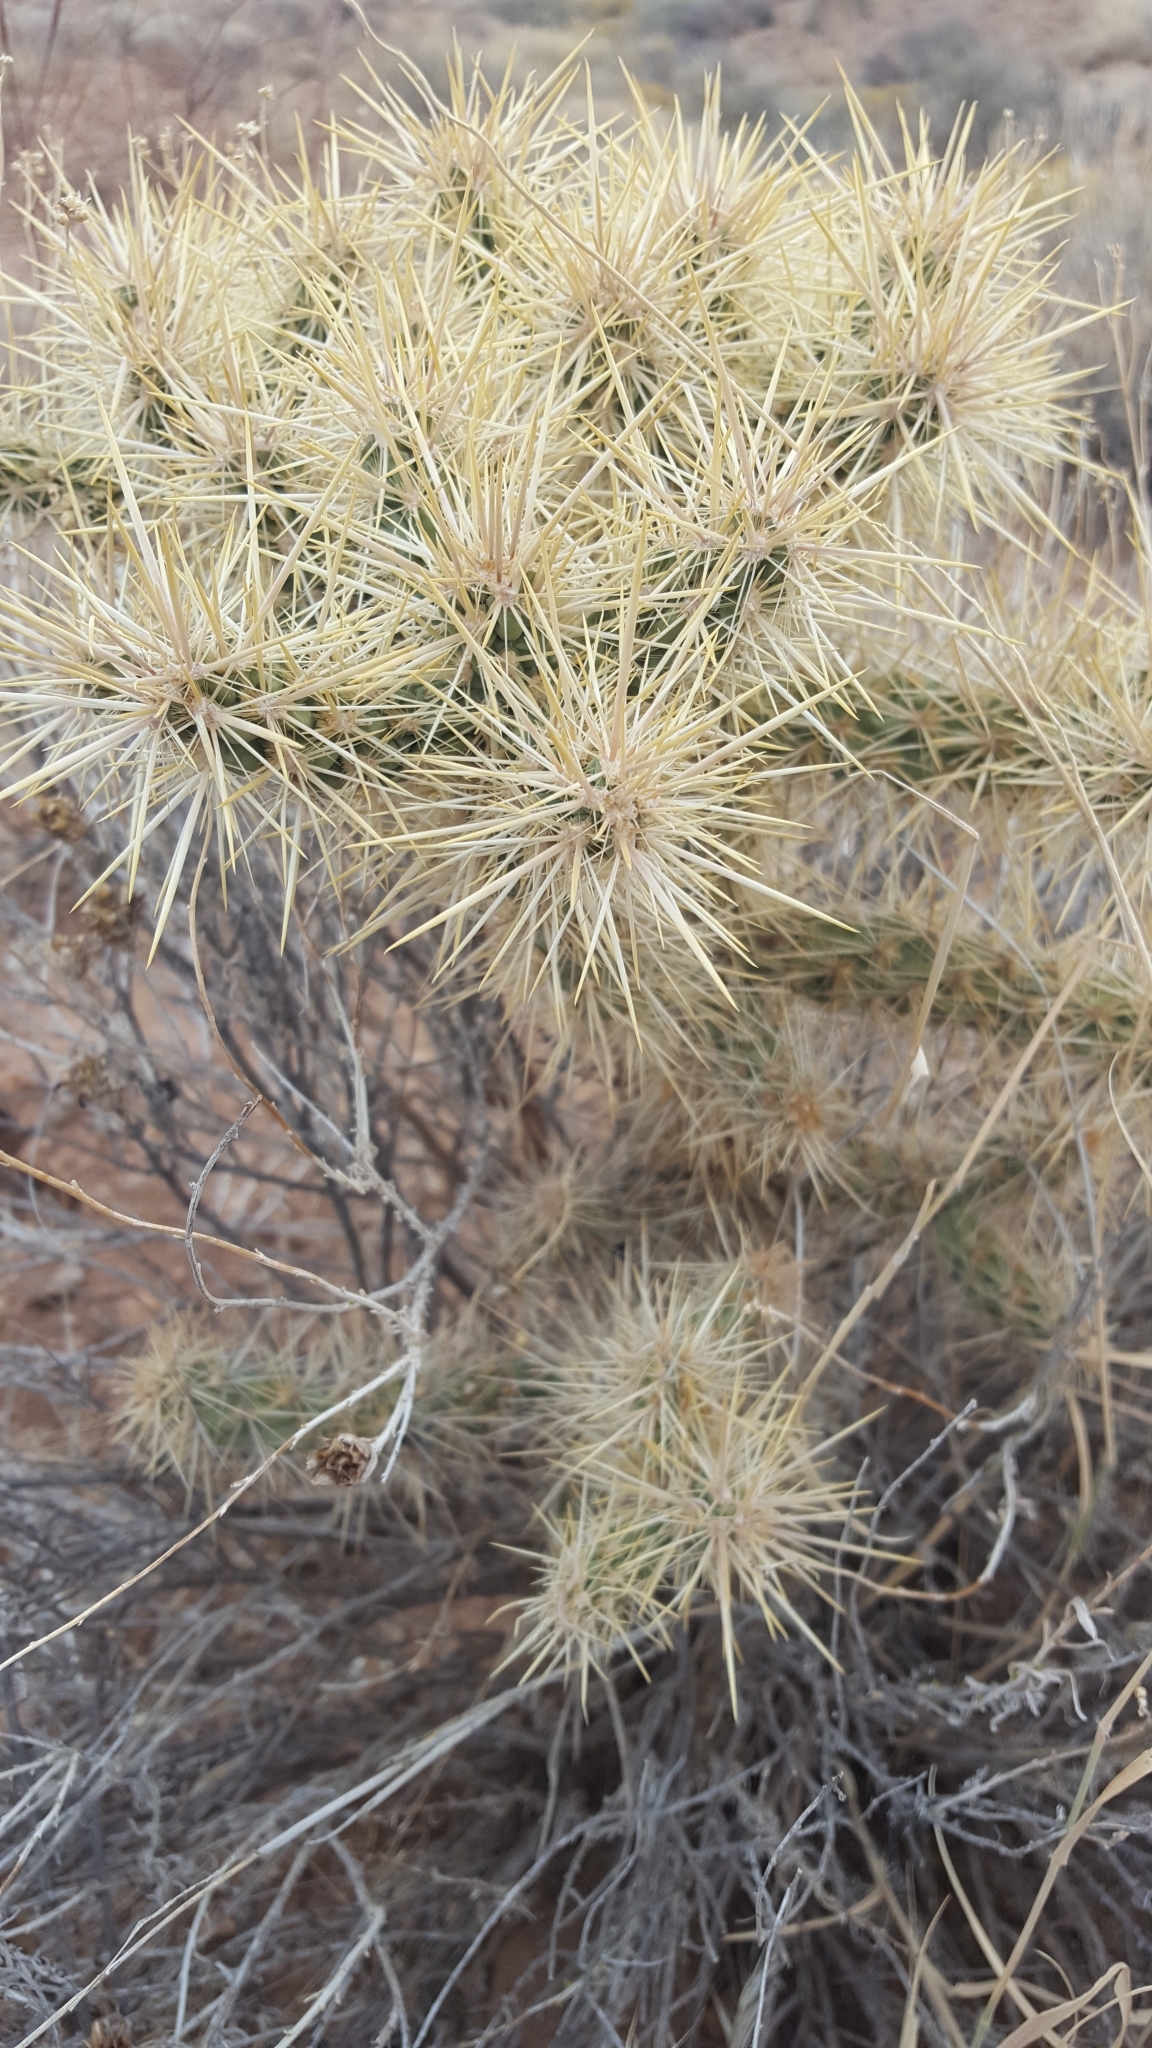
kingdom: Plantae
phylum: Tracheophyta
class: Magnoliopsida
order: Caryophyllales
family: Cactaceae
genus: Cylindropuntia
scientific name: Cylindropuntia echinocarpa
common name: Ground cholla
